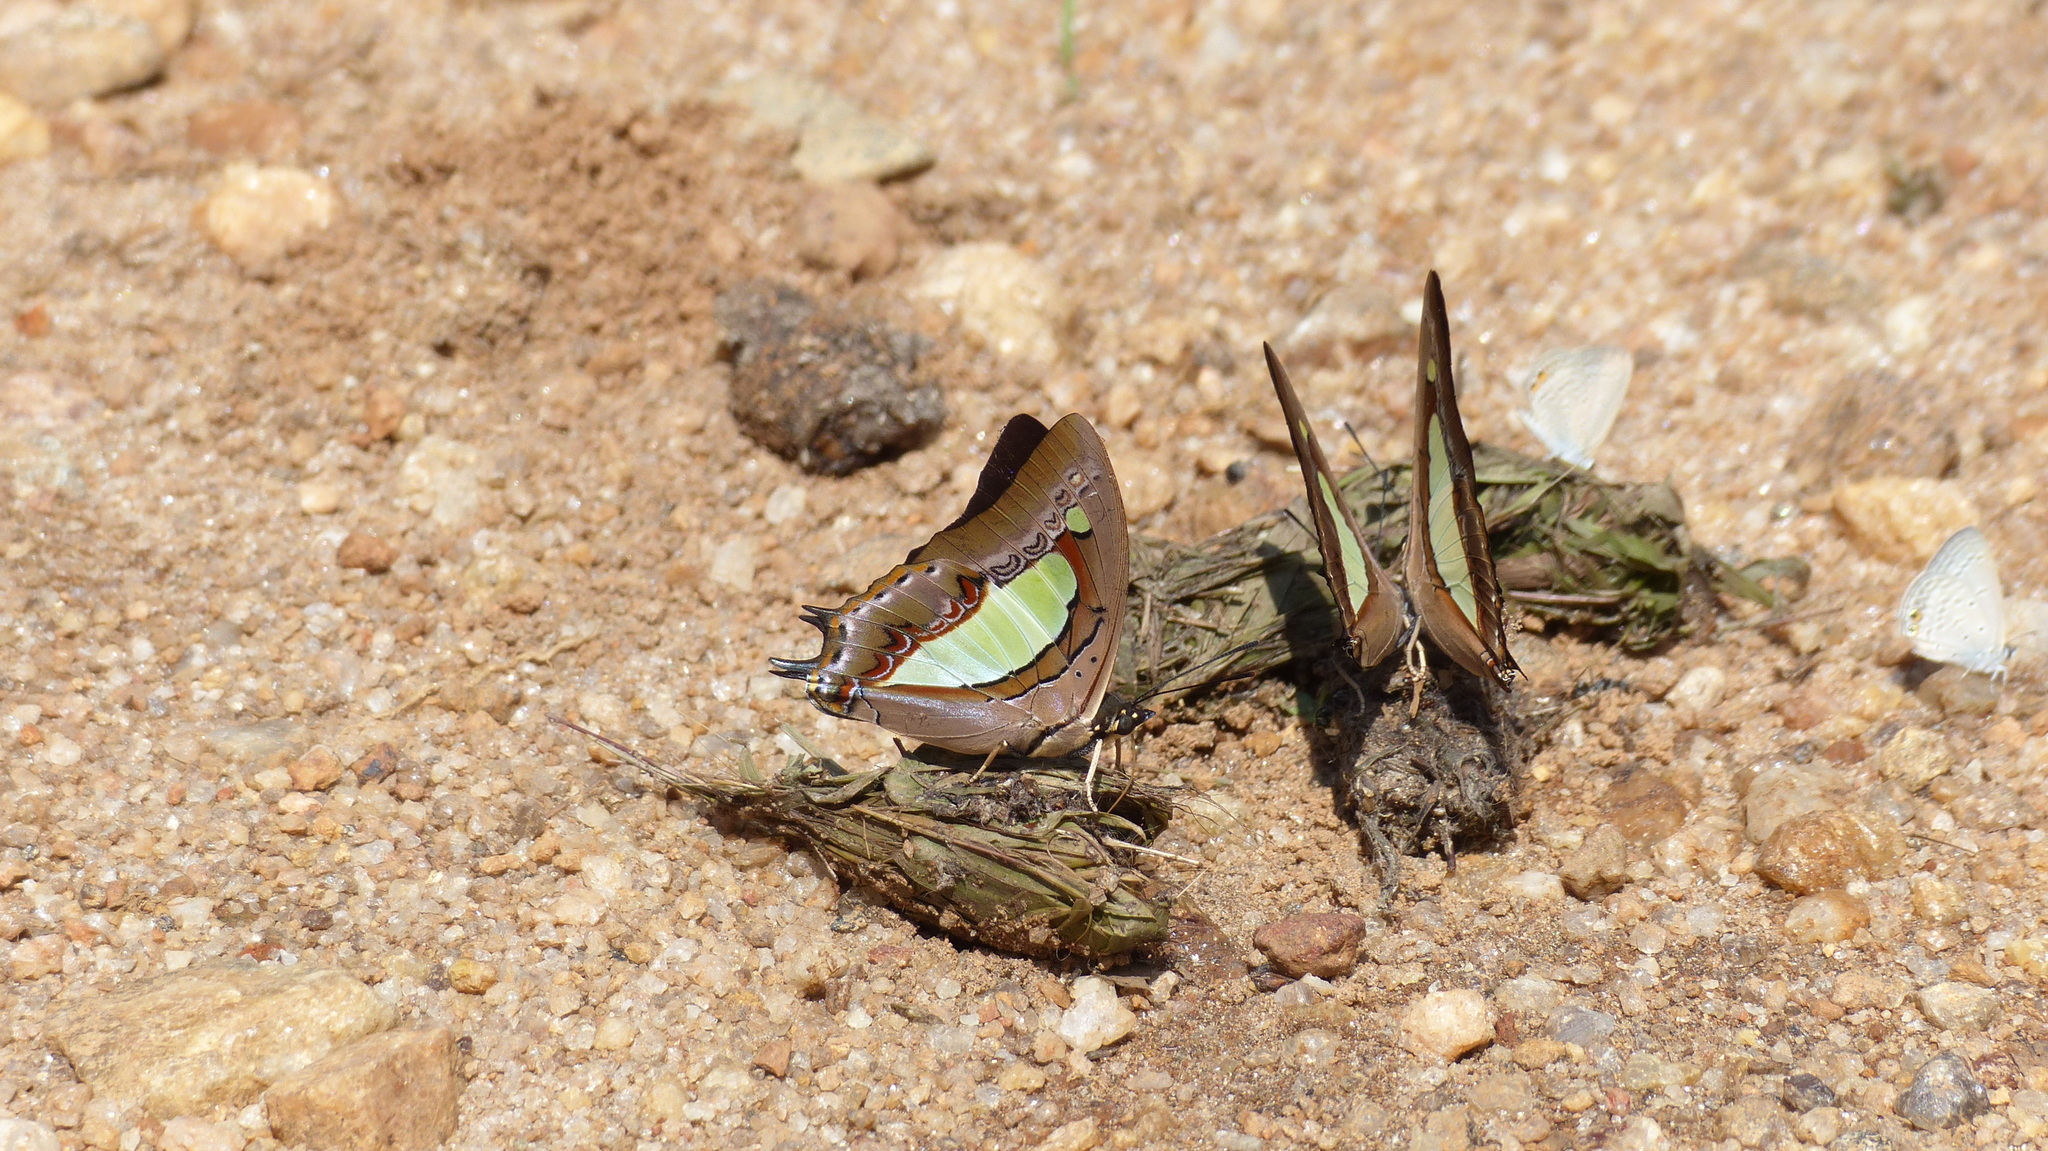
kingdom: Animalia
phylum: Arthropoda
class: Insecta
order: Lepidoptera
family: Nymphalidae
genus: Polyura
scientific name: Polyura
